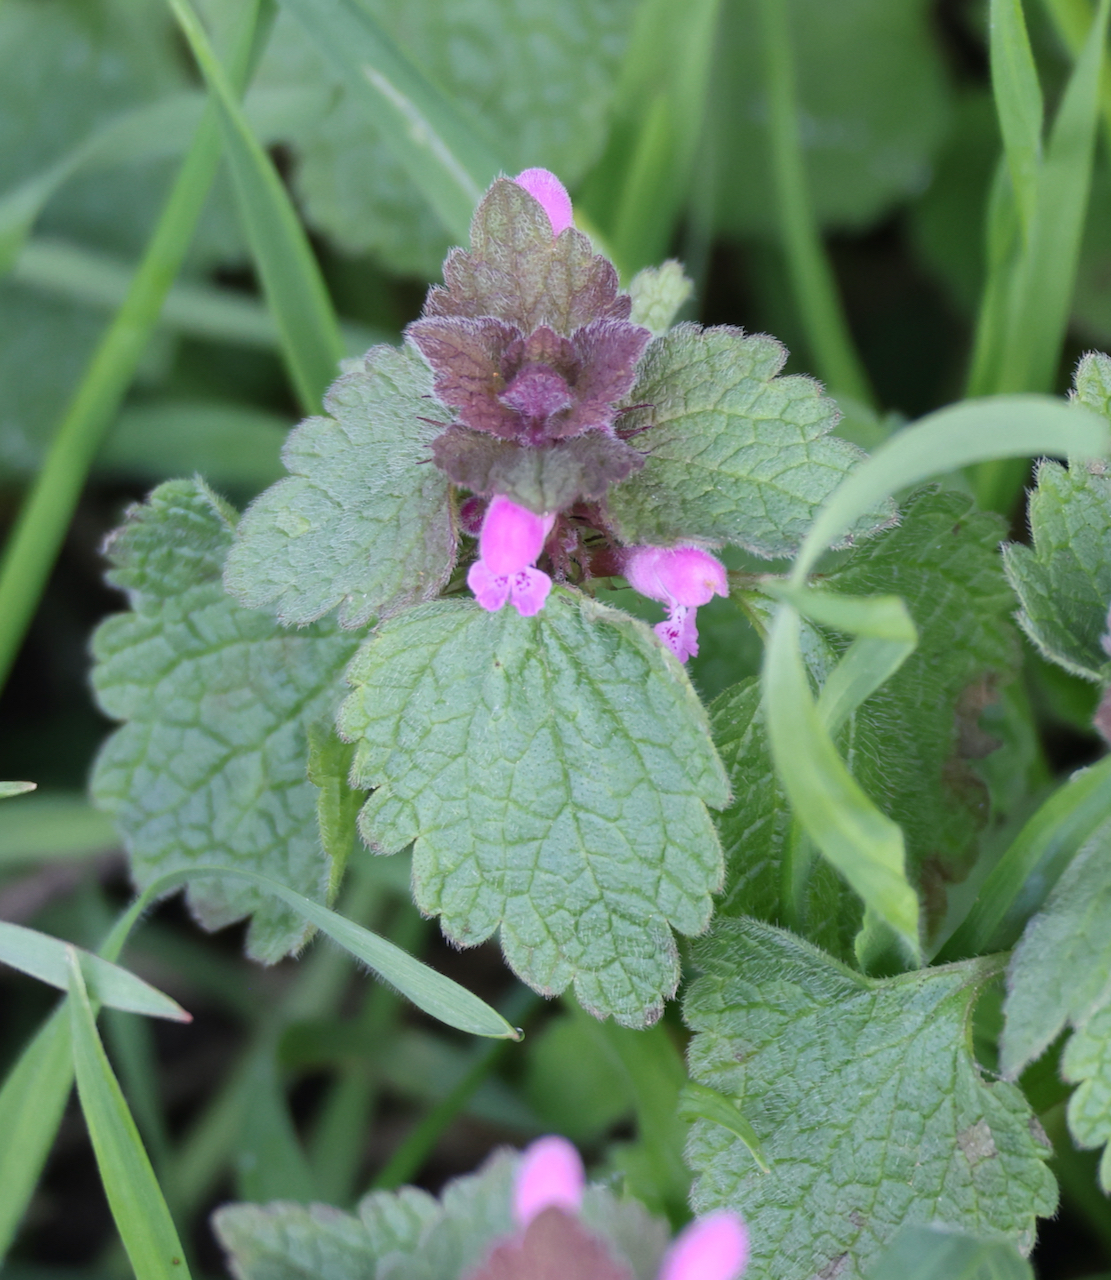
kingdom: Plantae
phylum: Tracheophyta
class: Magnoliopsida
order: Lamiales
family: Lamiaceae
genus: Lamium
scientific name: Lamium purpureum
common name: Red dead-nettle
